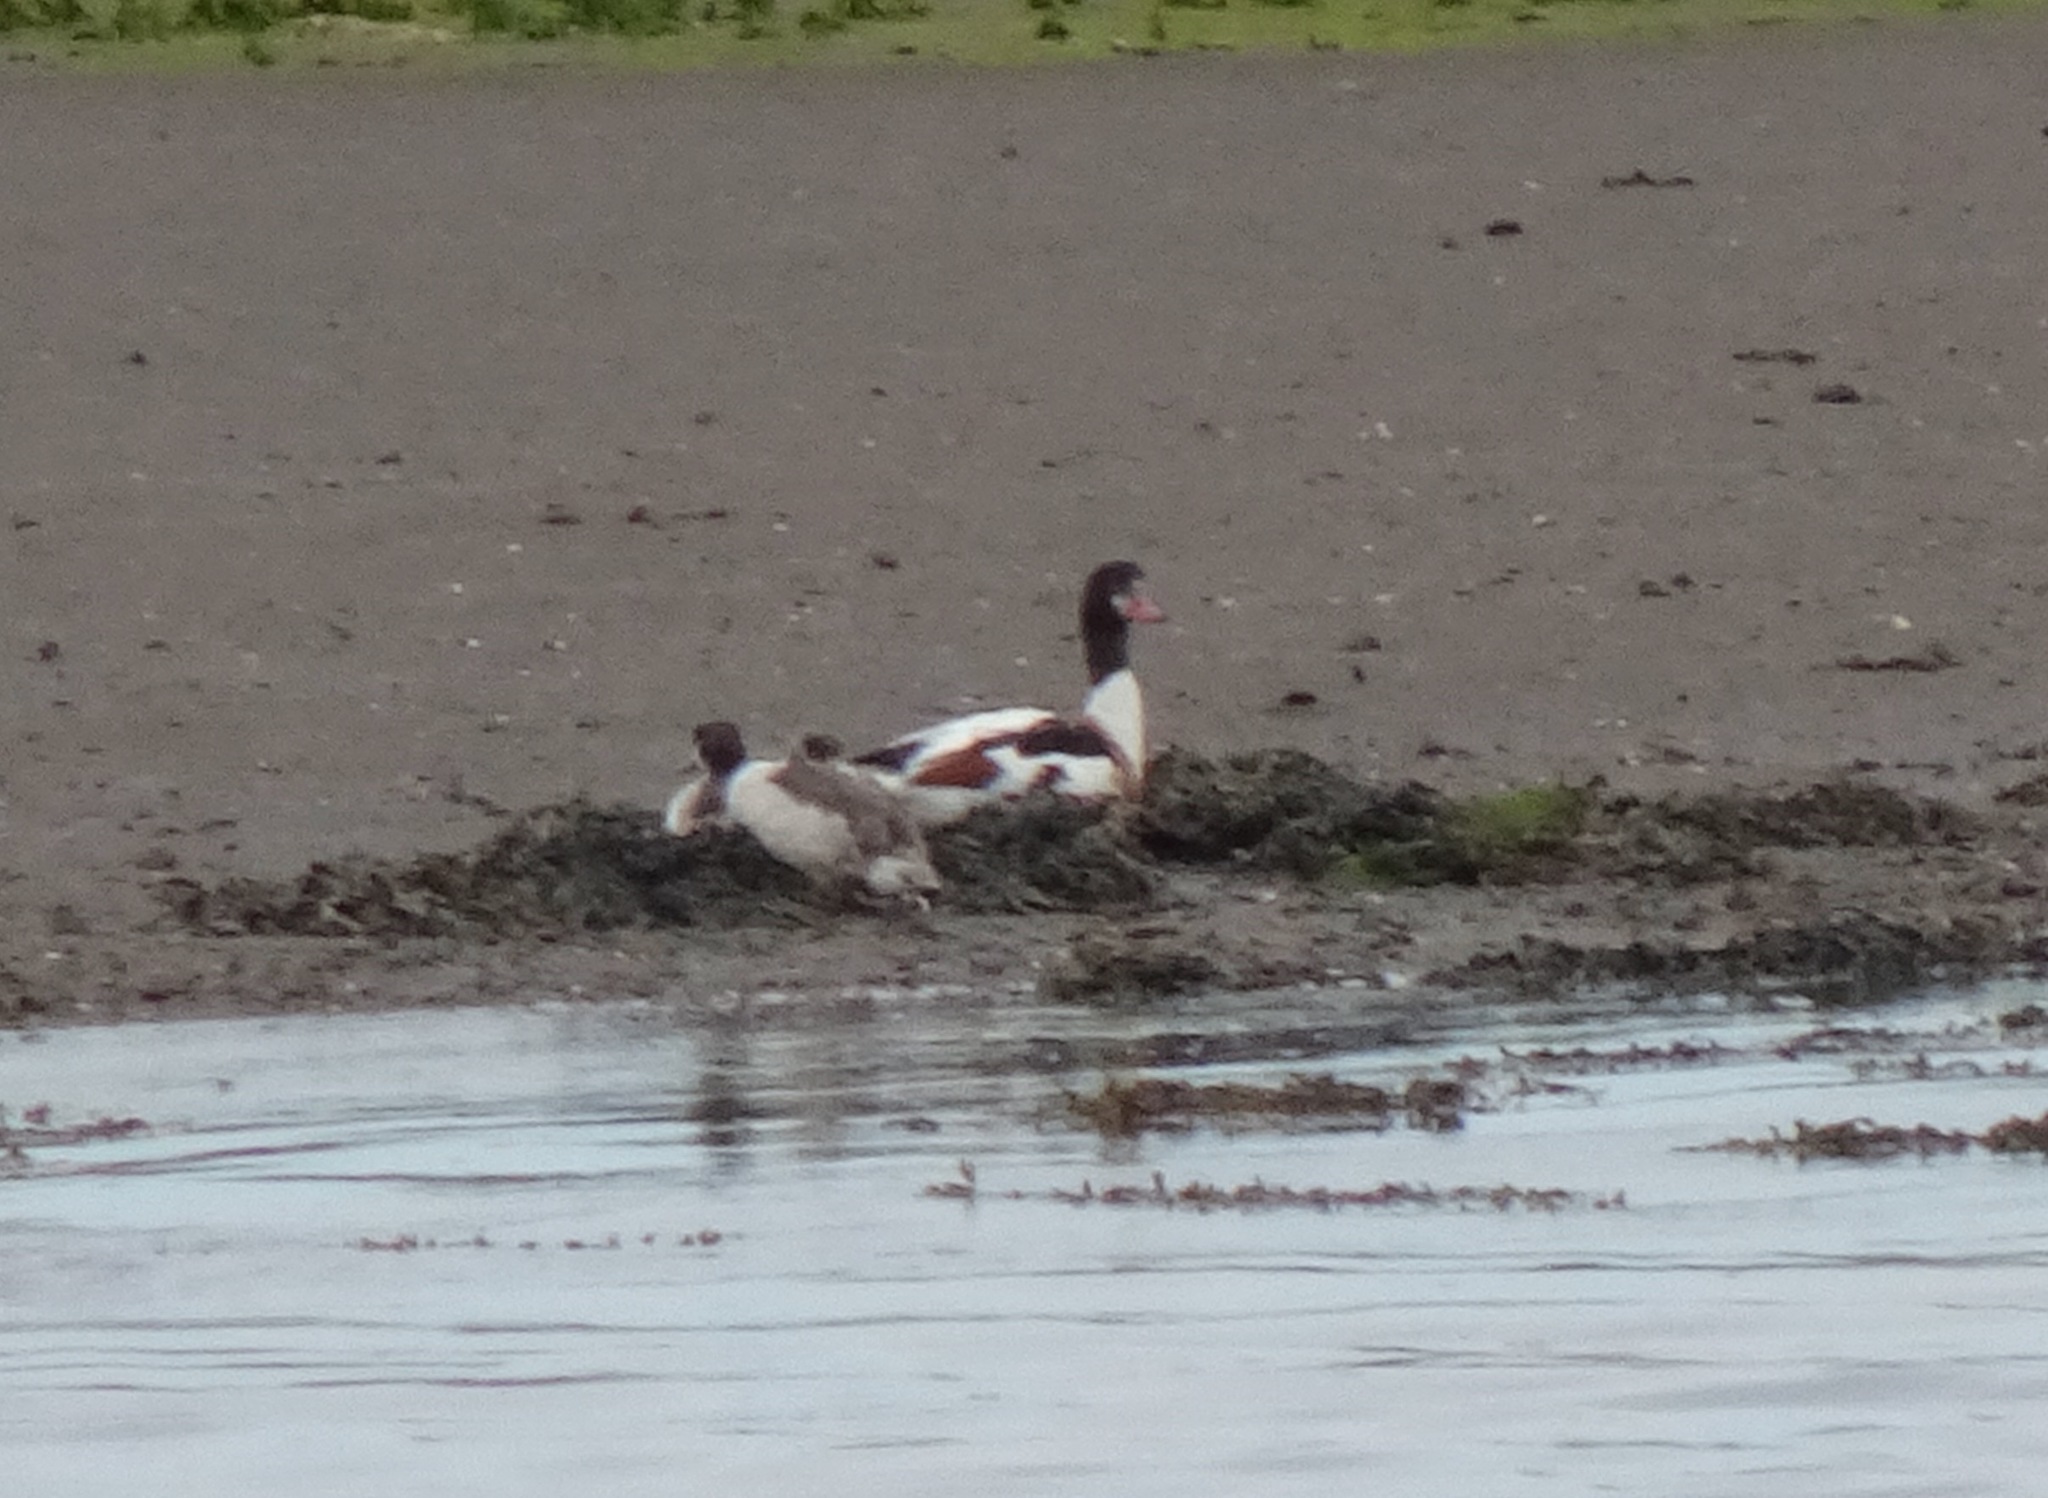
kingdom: Animalia
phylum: Chordata
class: Aves
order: Anseriformes
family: Anatidae
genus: Tadorna
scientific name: Tadorna tadorna
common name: Common shelduck
